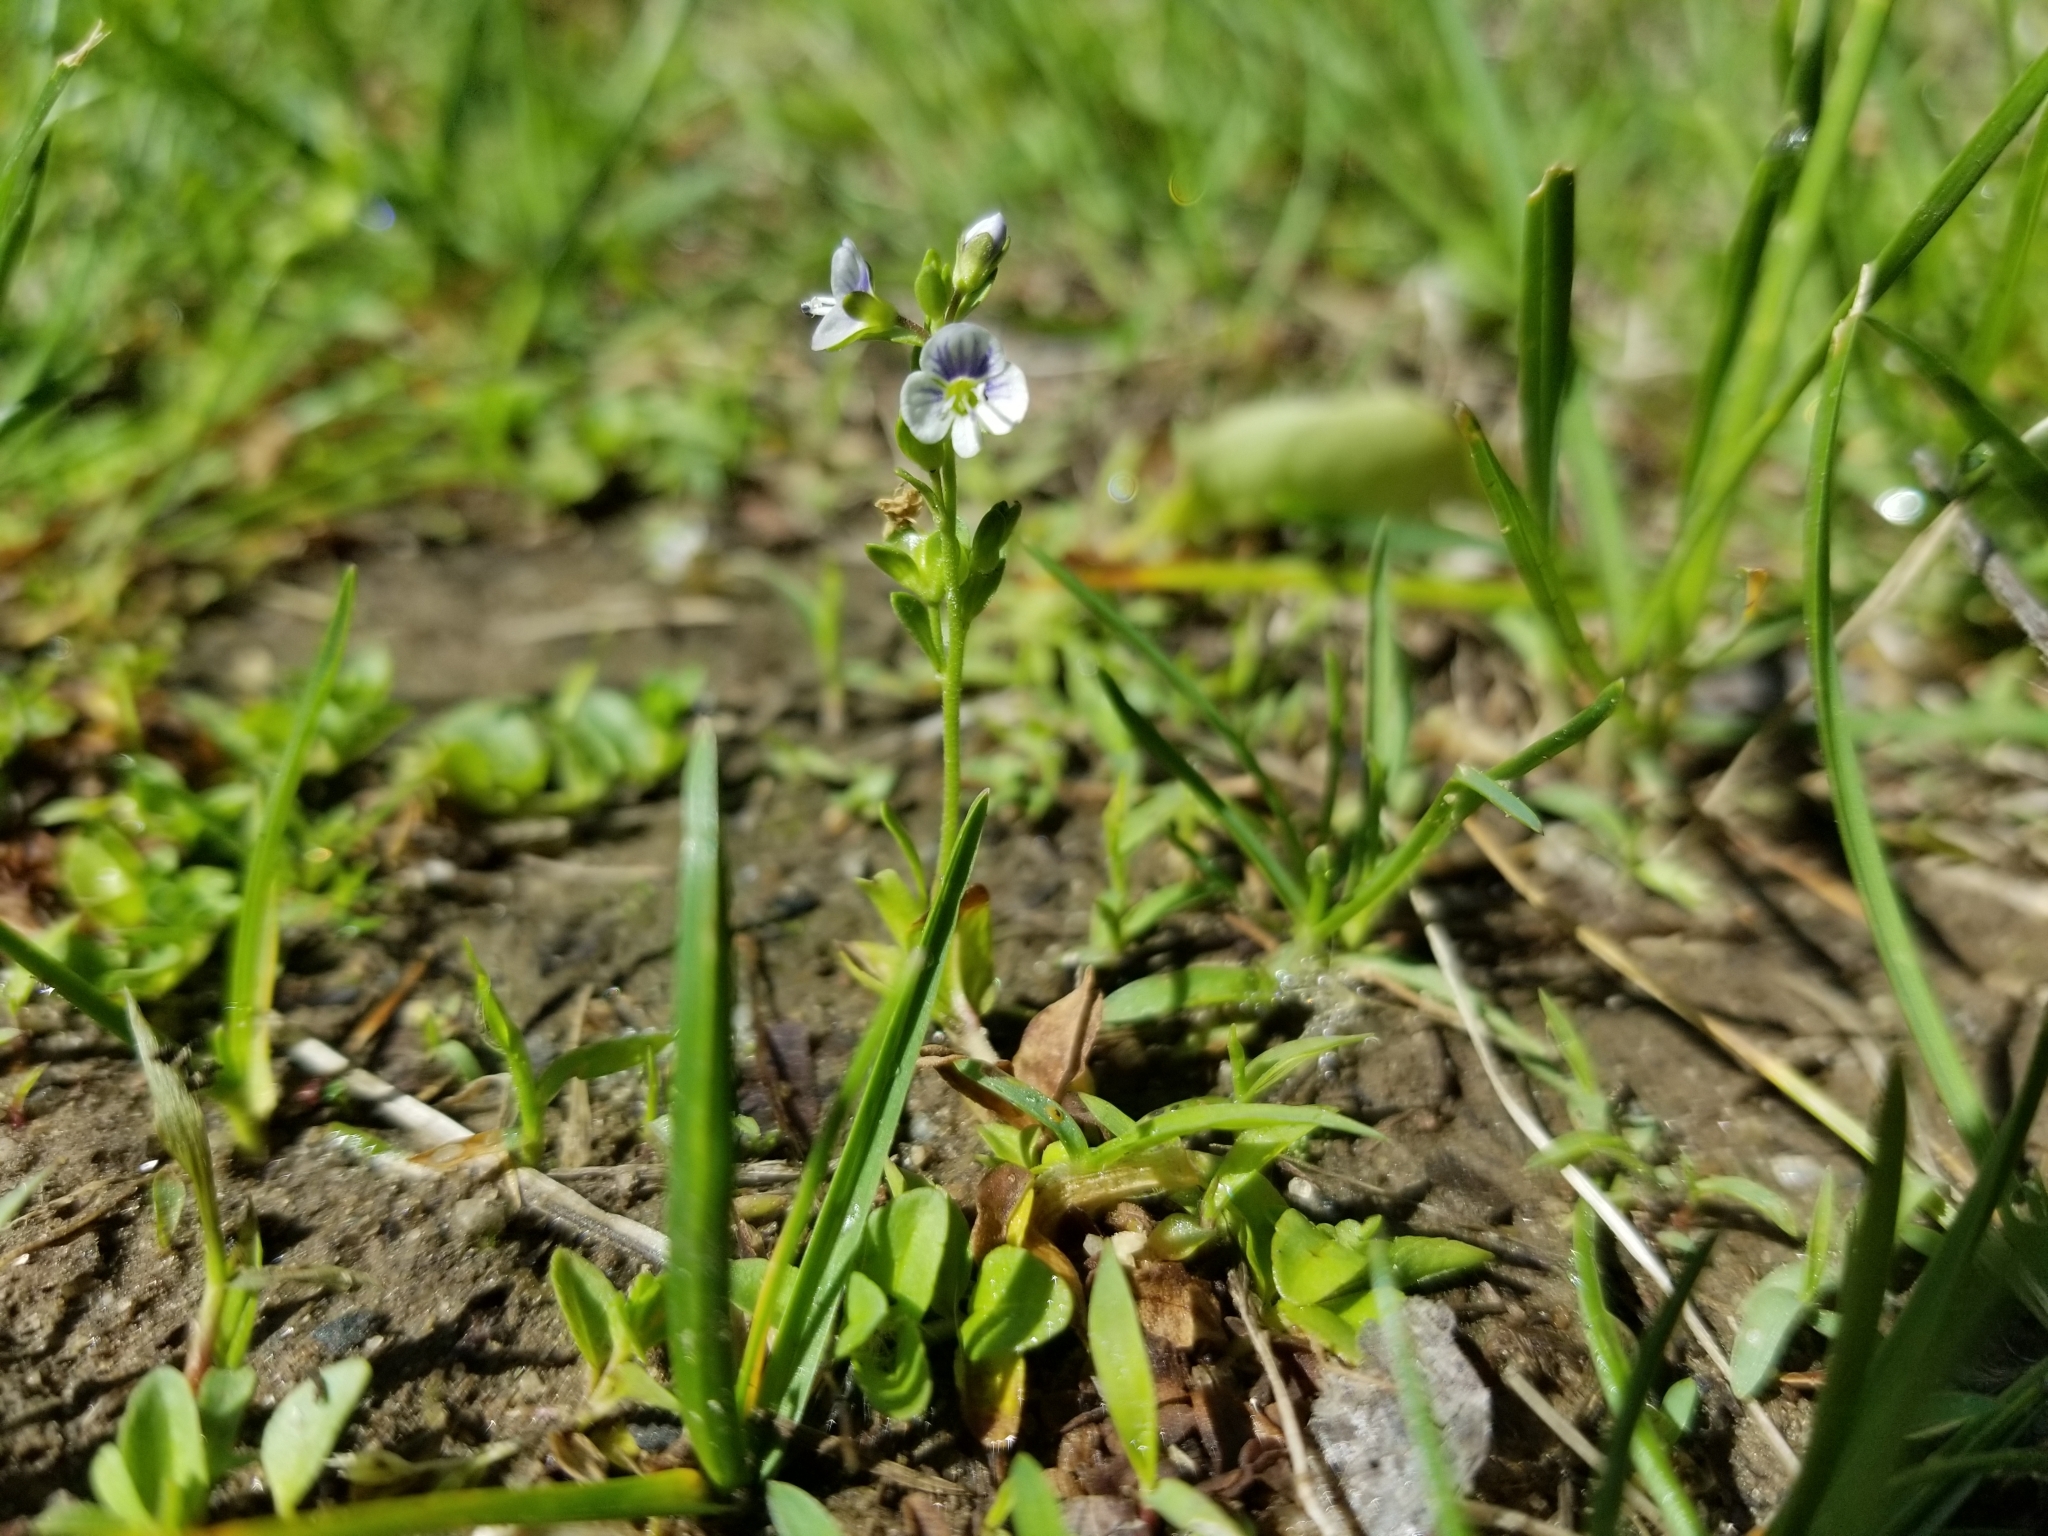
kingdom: Plantae
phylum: Tracheophyta
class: Magnoliopsida
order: Lamiales
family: Plantaginaceae
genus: Veronica
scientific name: Veronica serpyllifolia
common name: Thyme-leaved speedwell
